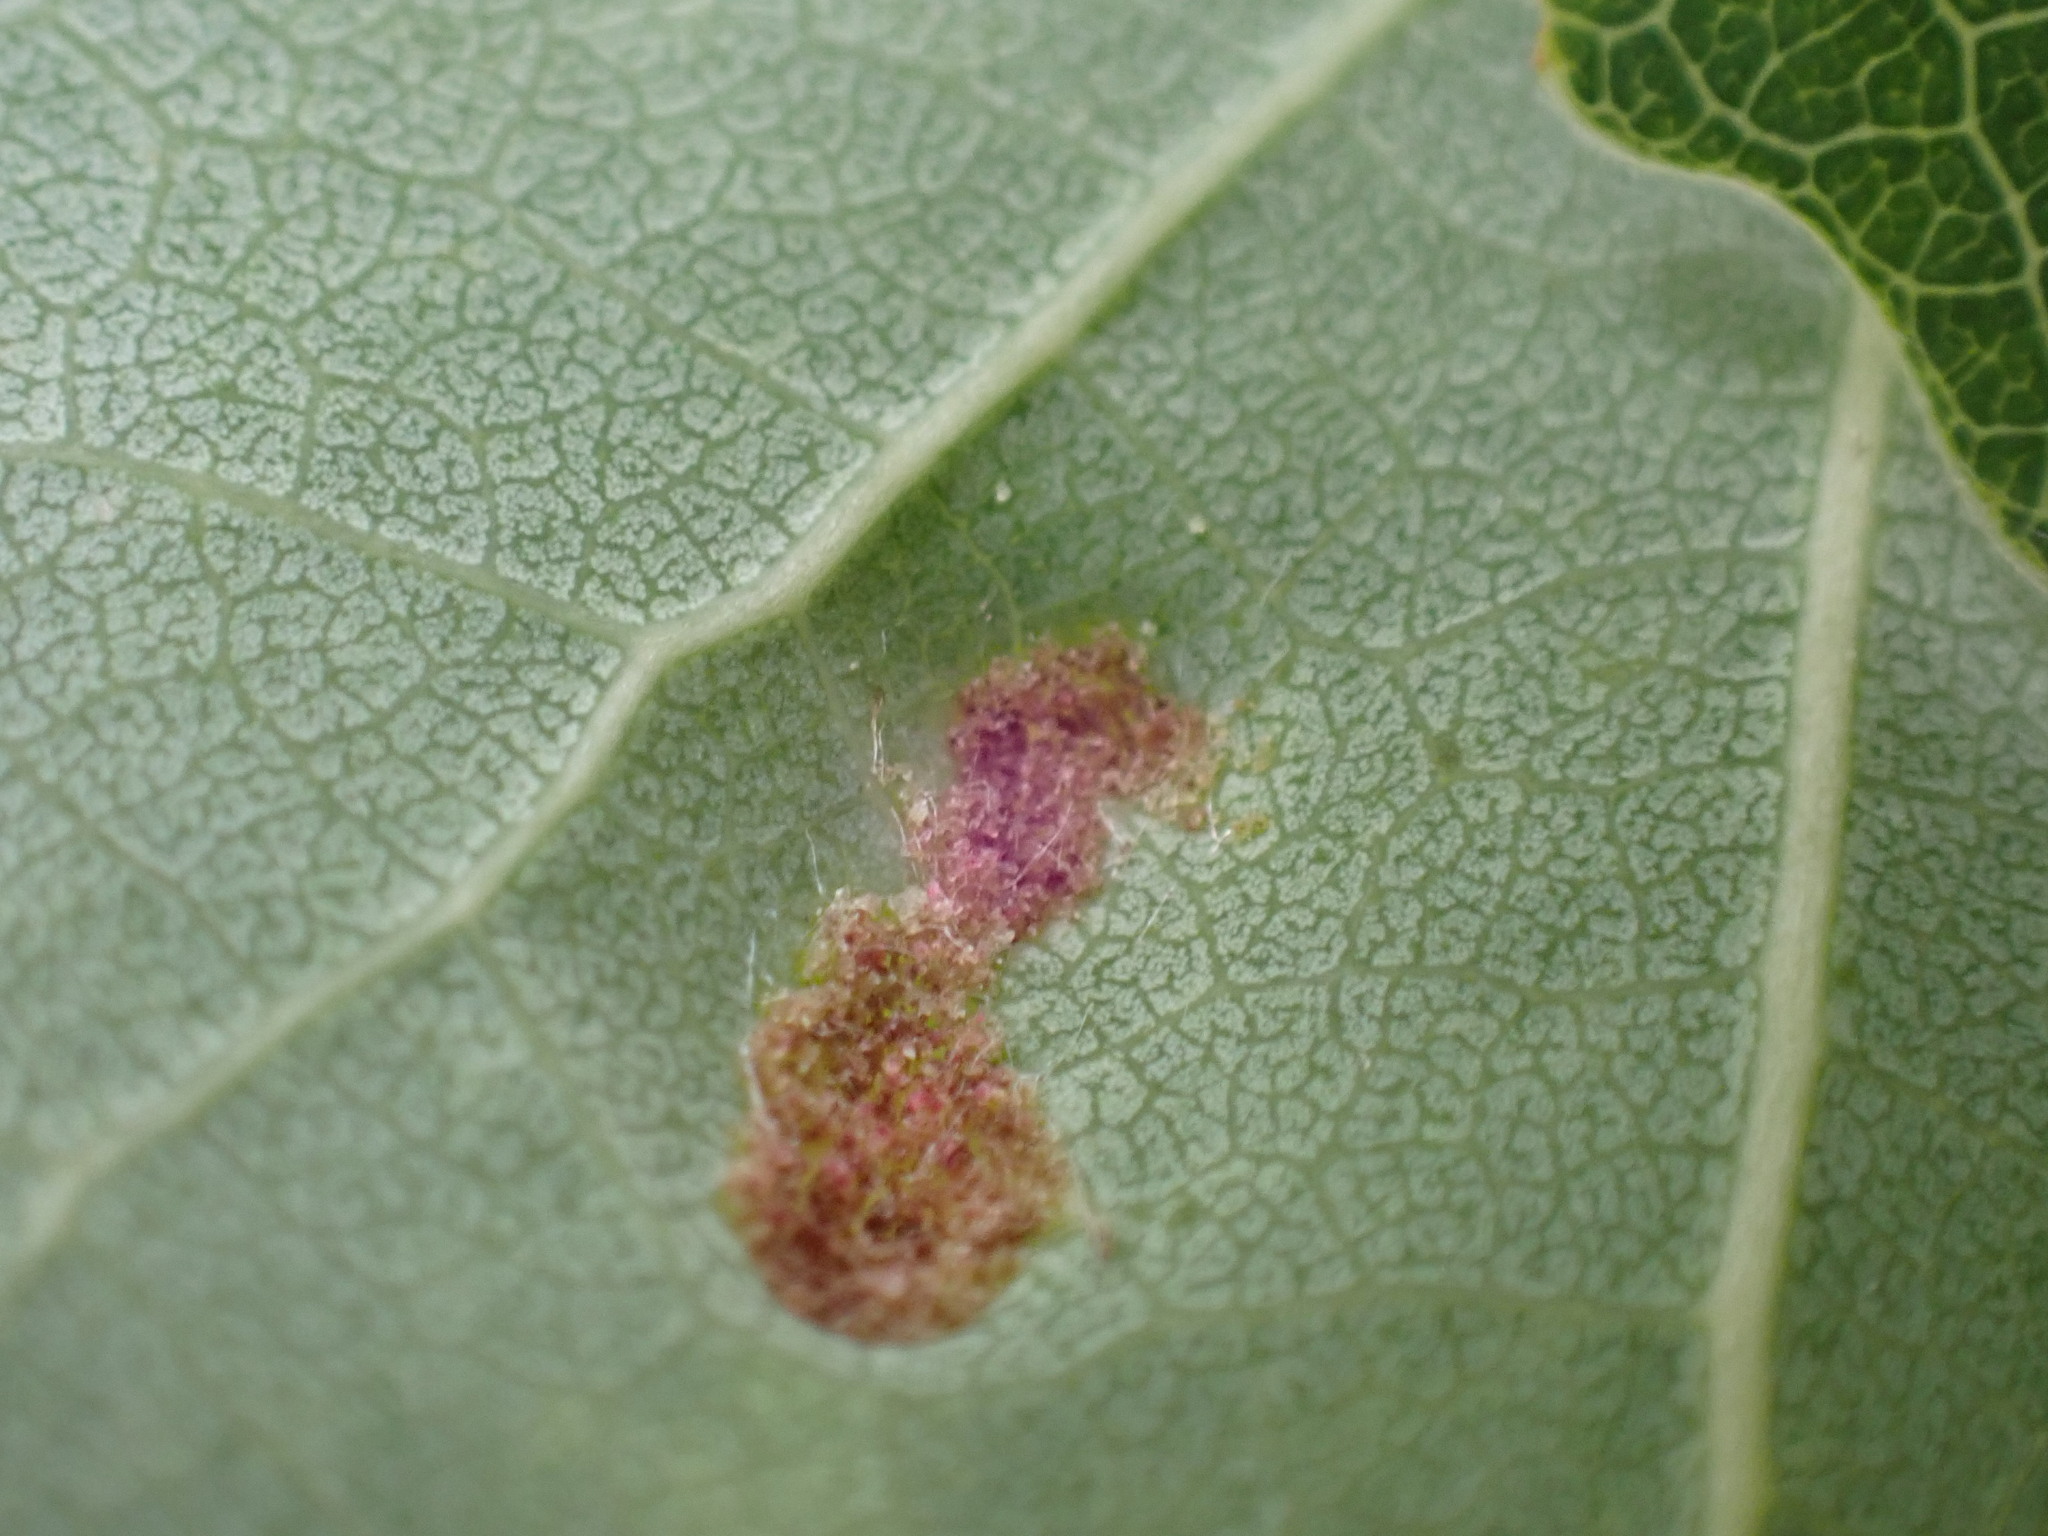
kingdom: Animalia
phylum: Arthropoda
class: Arachnida
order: Trombidiformes
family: Eriophyidae
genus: Phyllocoptes
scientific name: Phyllocoptes populi
